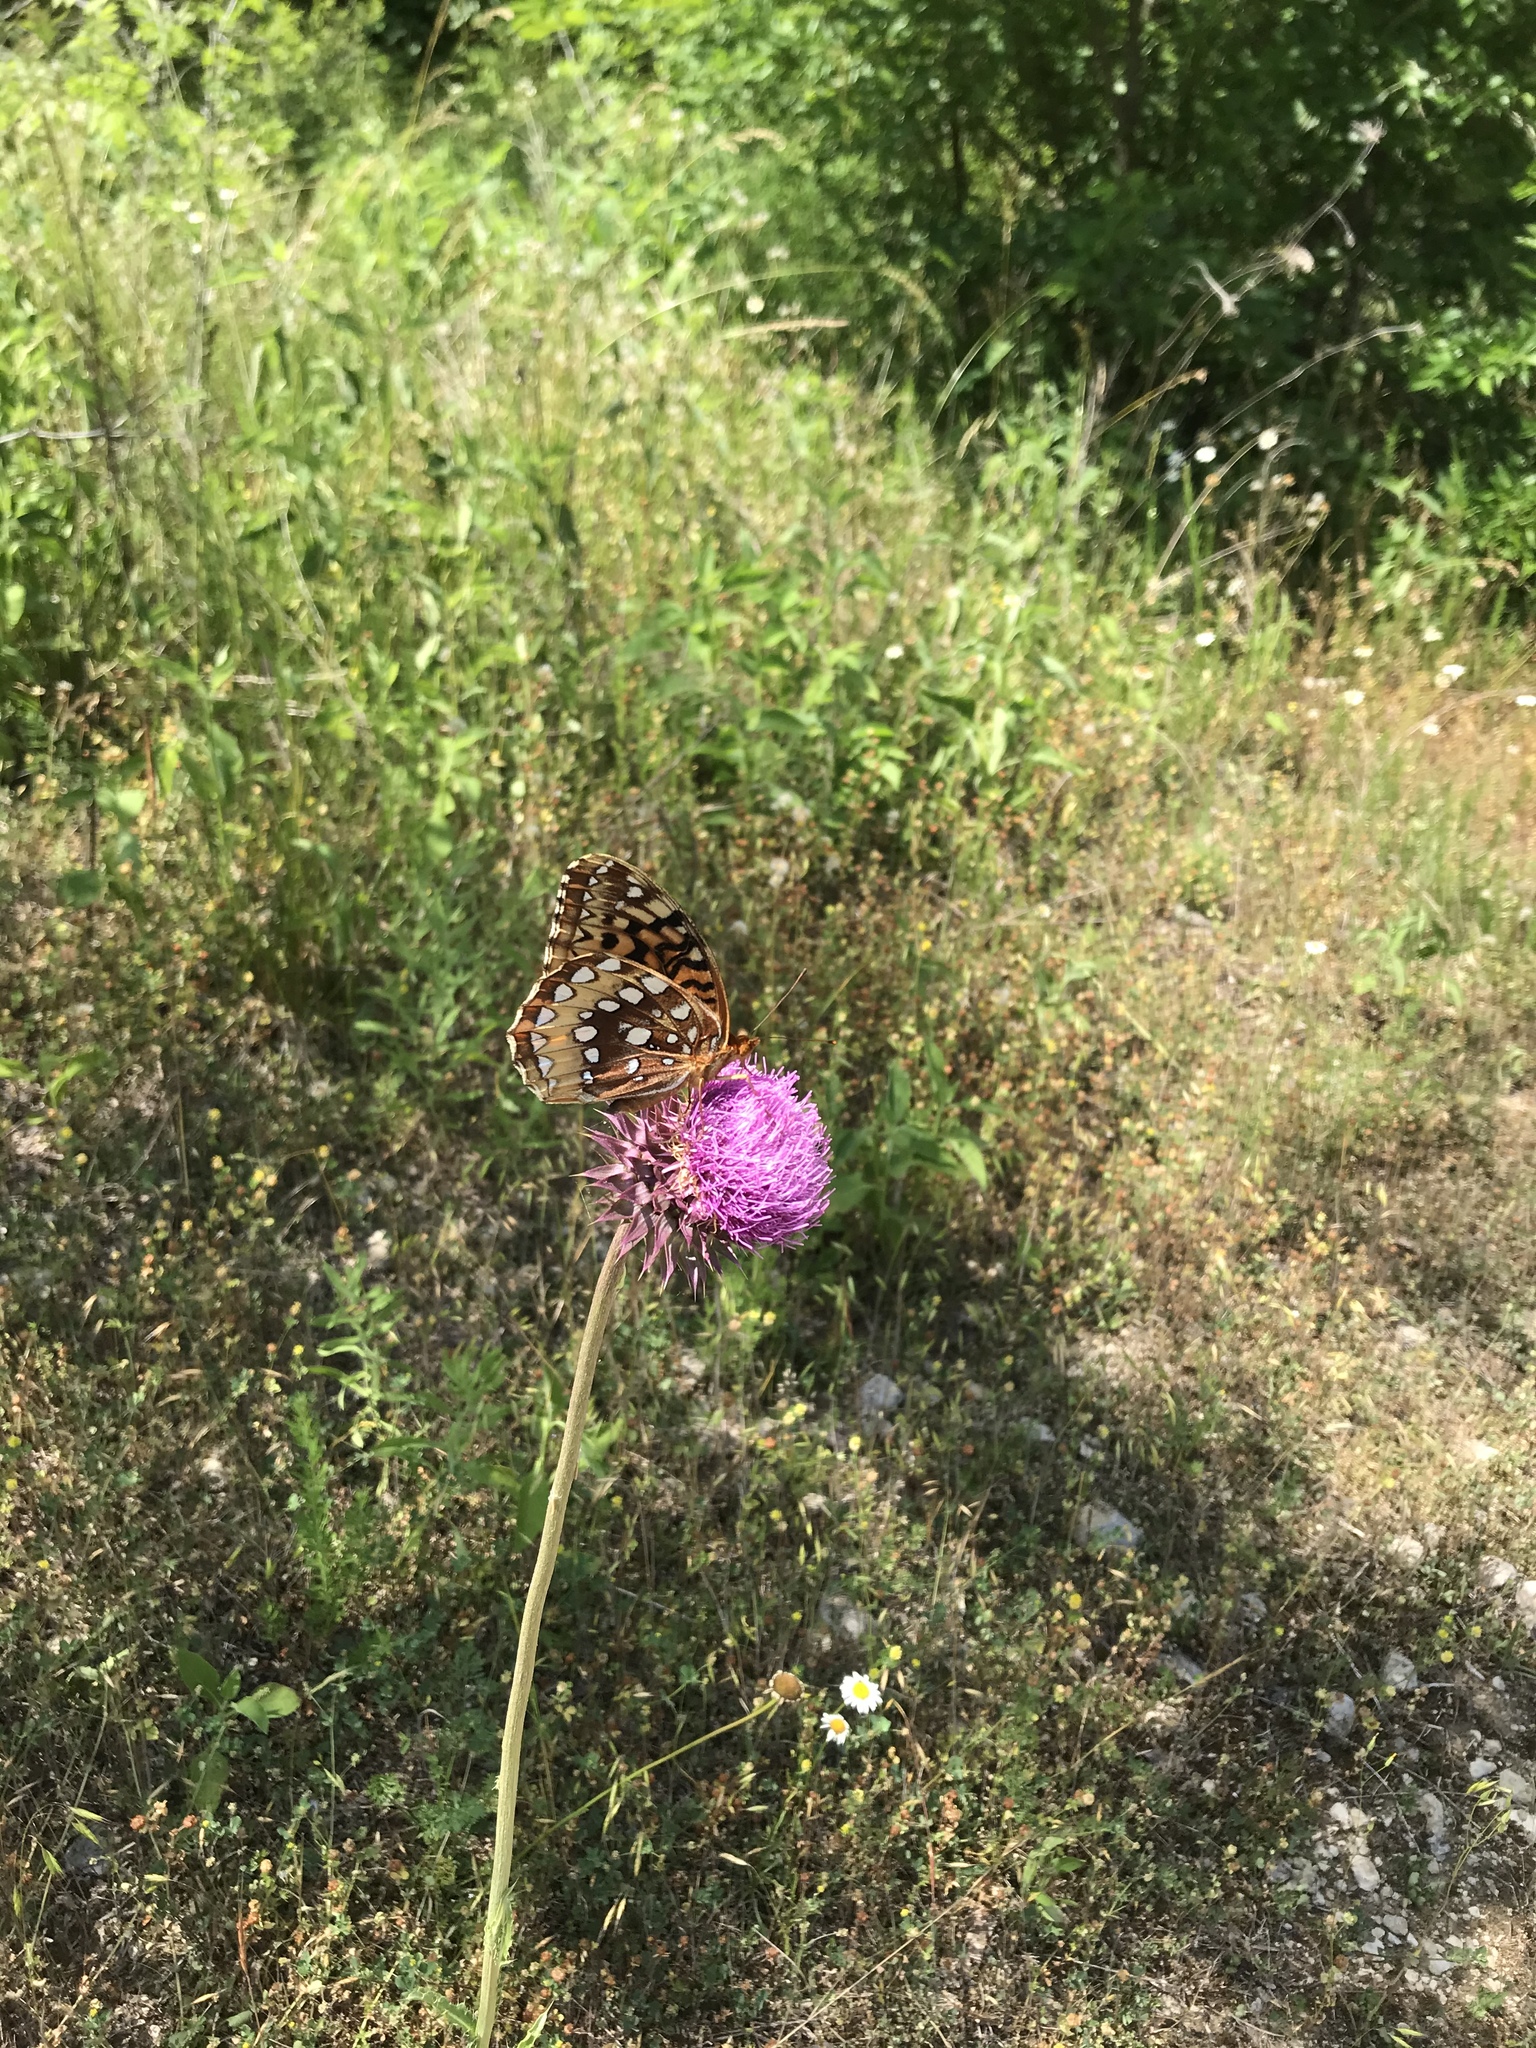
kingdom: Animalia
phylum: Arthropoda
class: Insecta
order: Lepidoptera
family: Nymphalidae
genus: Speyeria
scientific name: Speyeria cybele
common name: Great spangled fritillary
